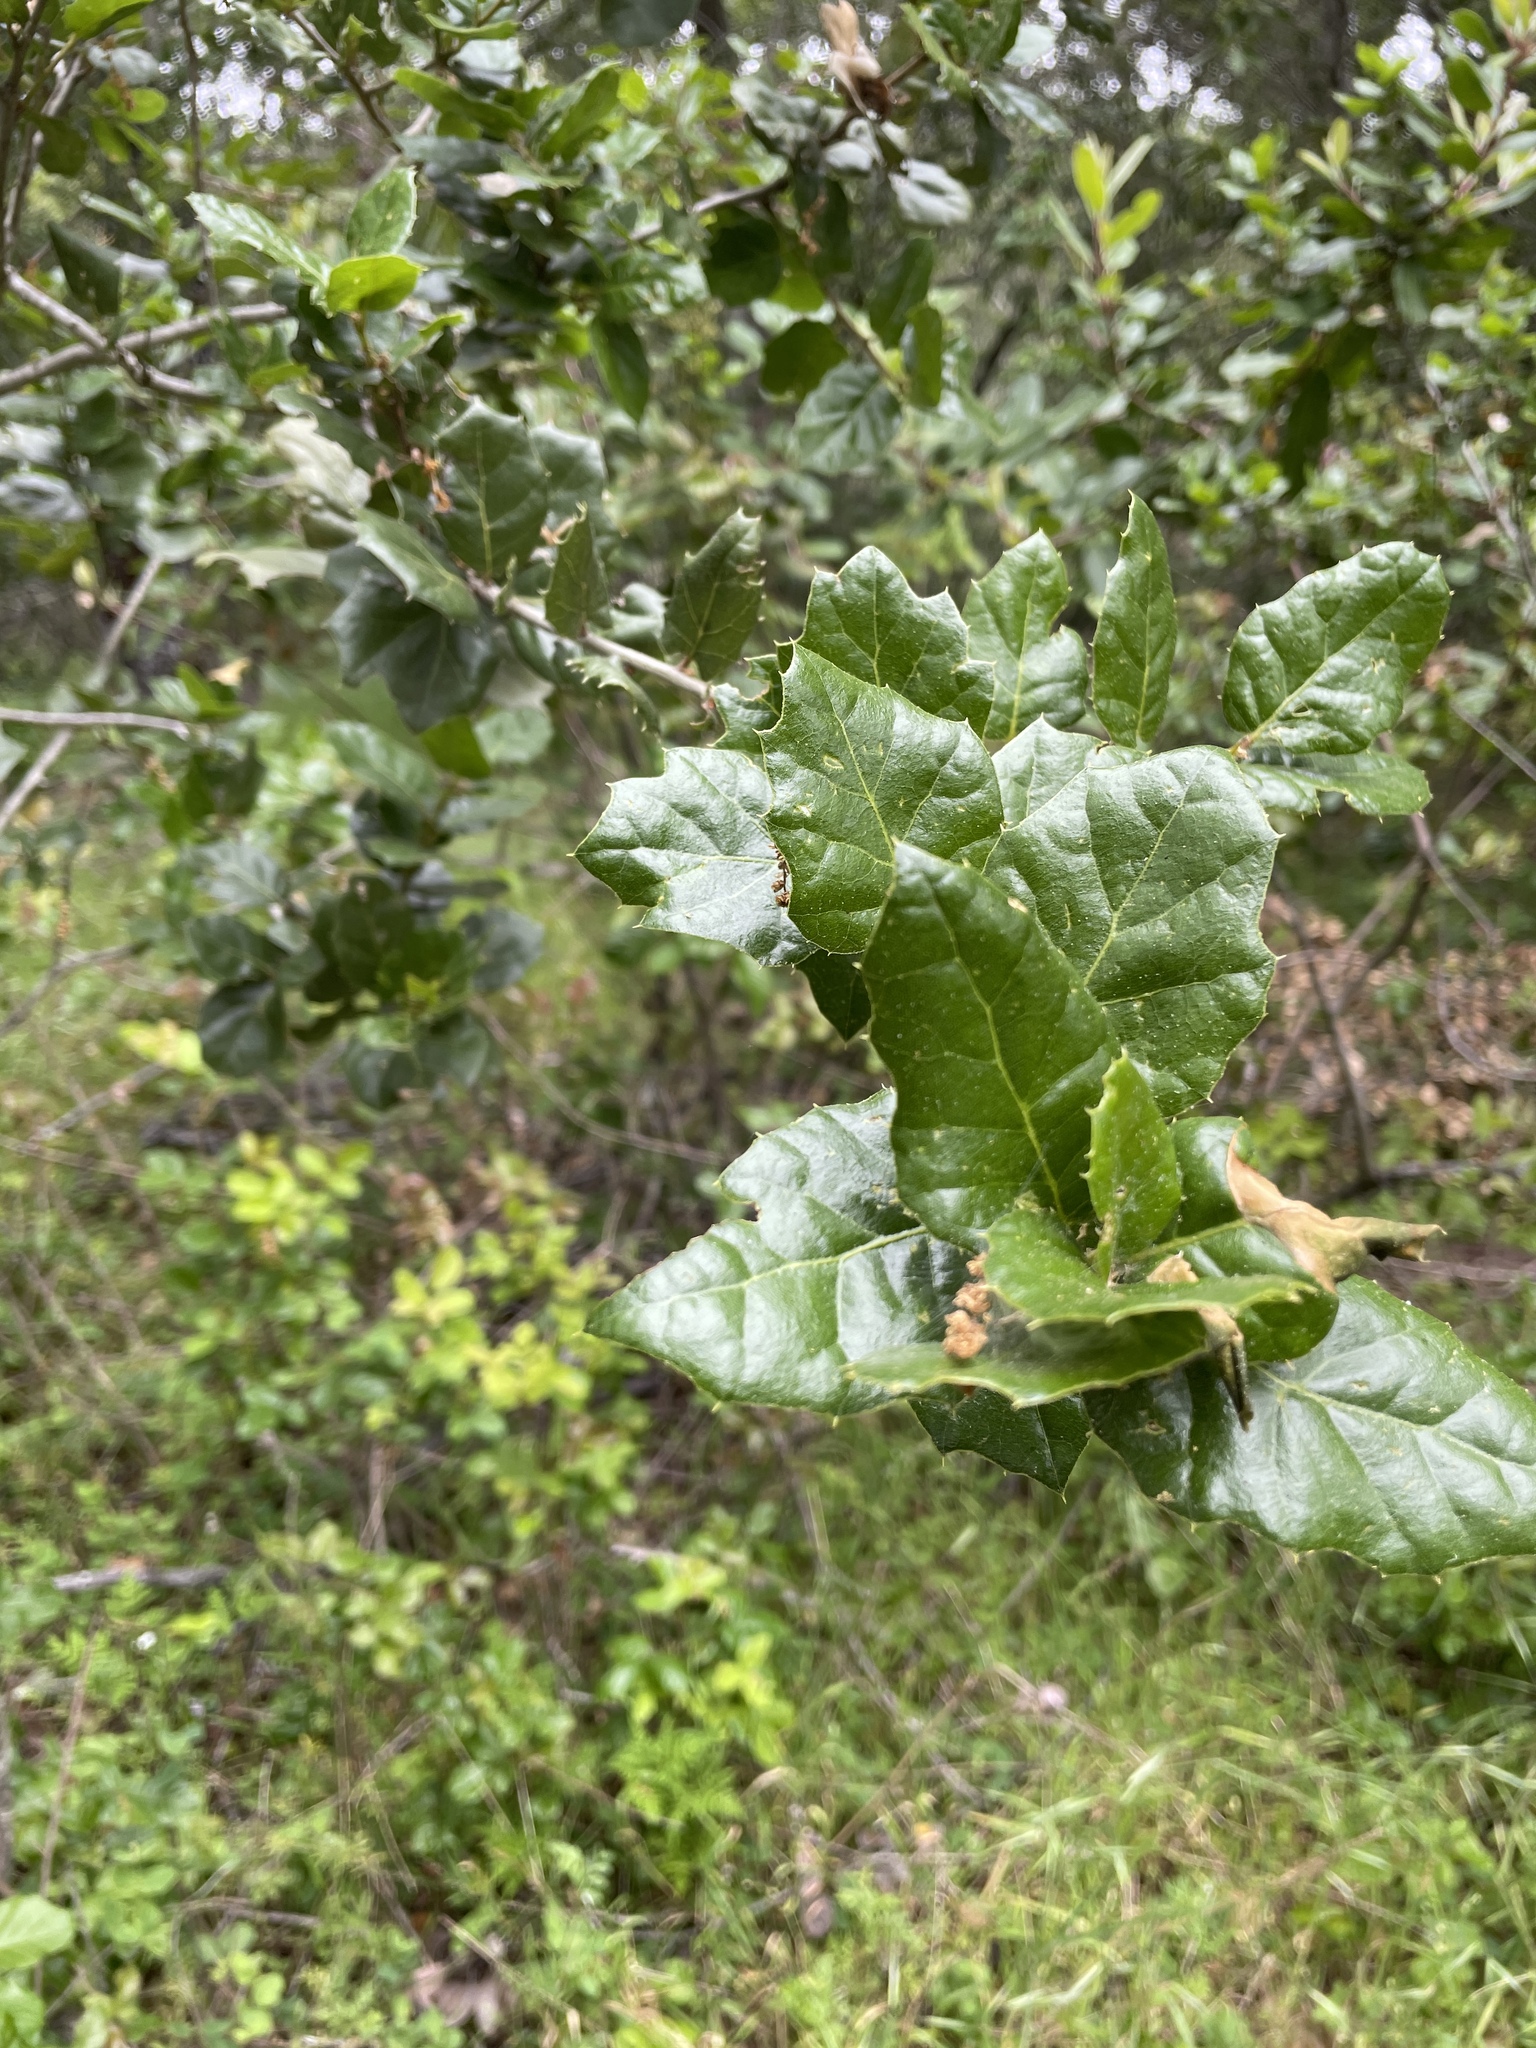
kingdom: Plantae
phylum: Tracheophyta
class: Magnoliopsida
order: Fagales
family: Fagaceae
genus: Quercus
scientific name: Quercus agrifolia
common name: California live oak
